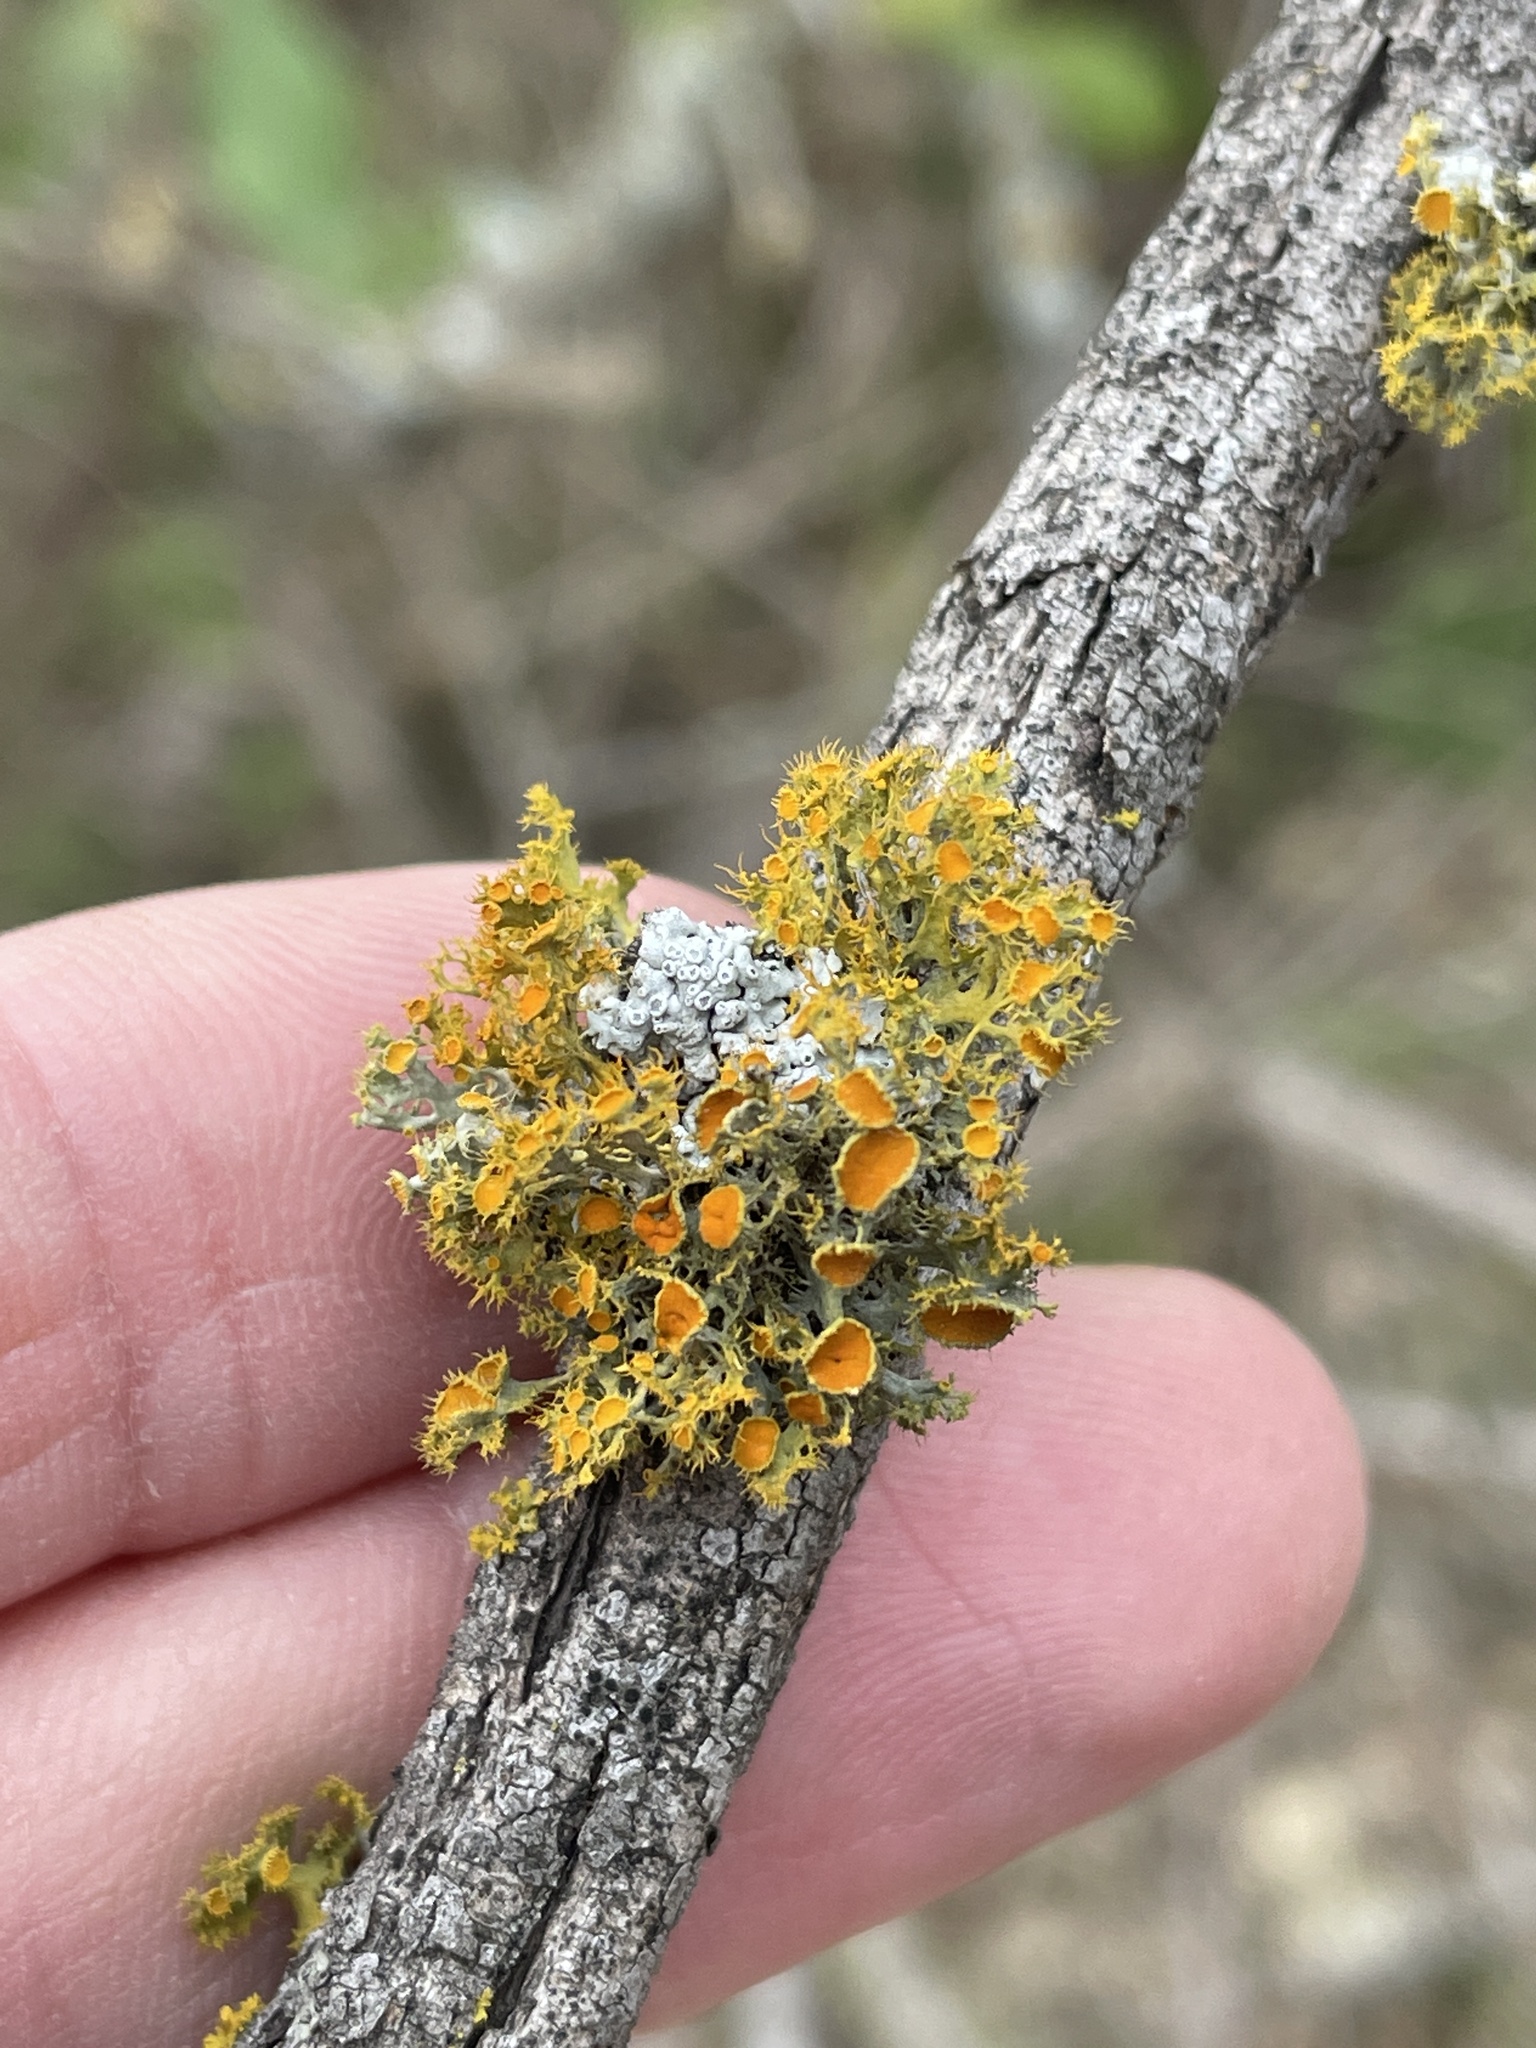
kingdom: Fungi
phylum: Ascomycota
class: Lecanoromycetes
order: Teloschistales
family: Teloschistaceae
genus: Niorma
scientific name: Niorma chrysophthalma
